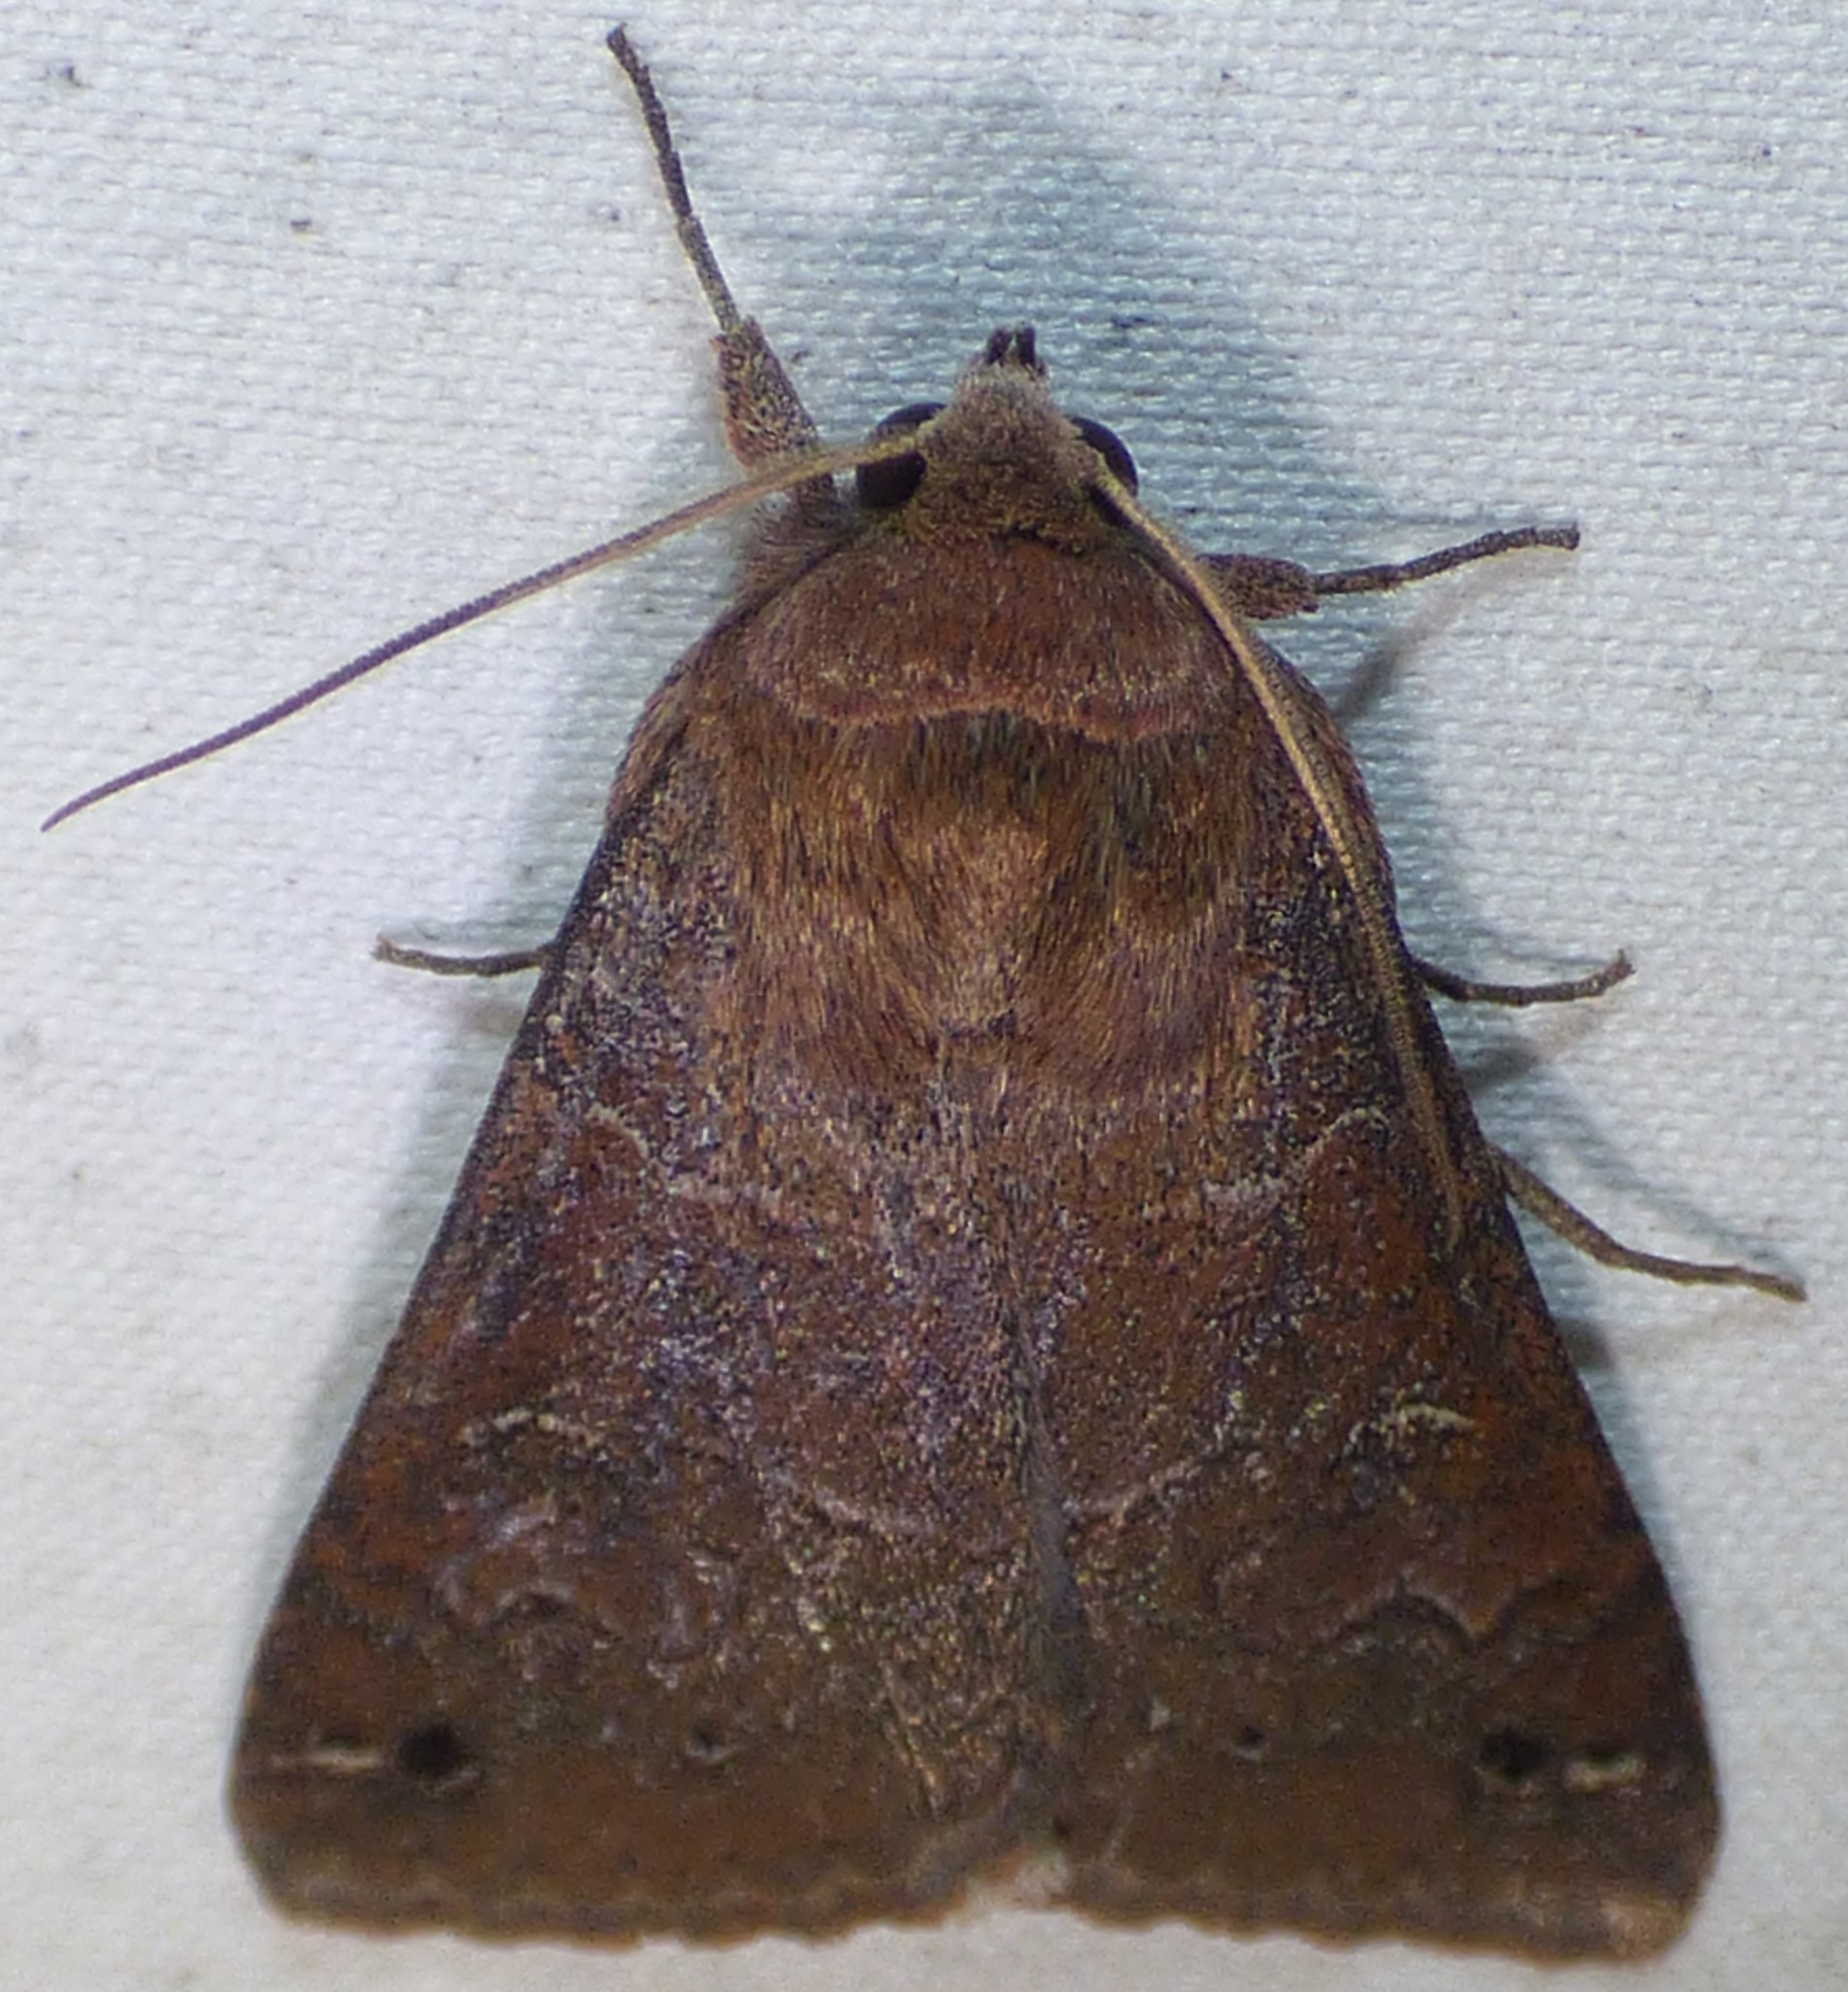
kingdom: Animalia
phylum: Arthropoda
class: Insecta
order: Lepidoptera
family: Erebidae
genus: Cissusa
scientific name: Cissusa spadix
